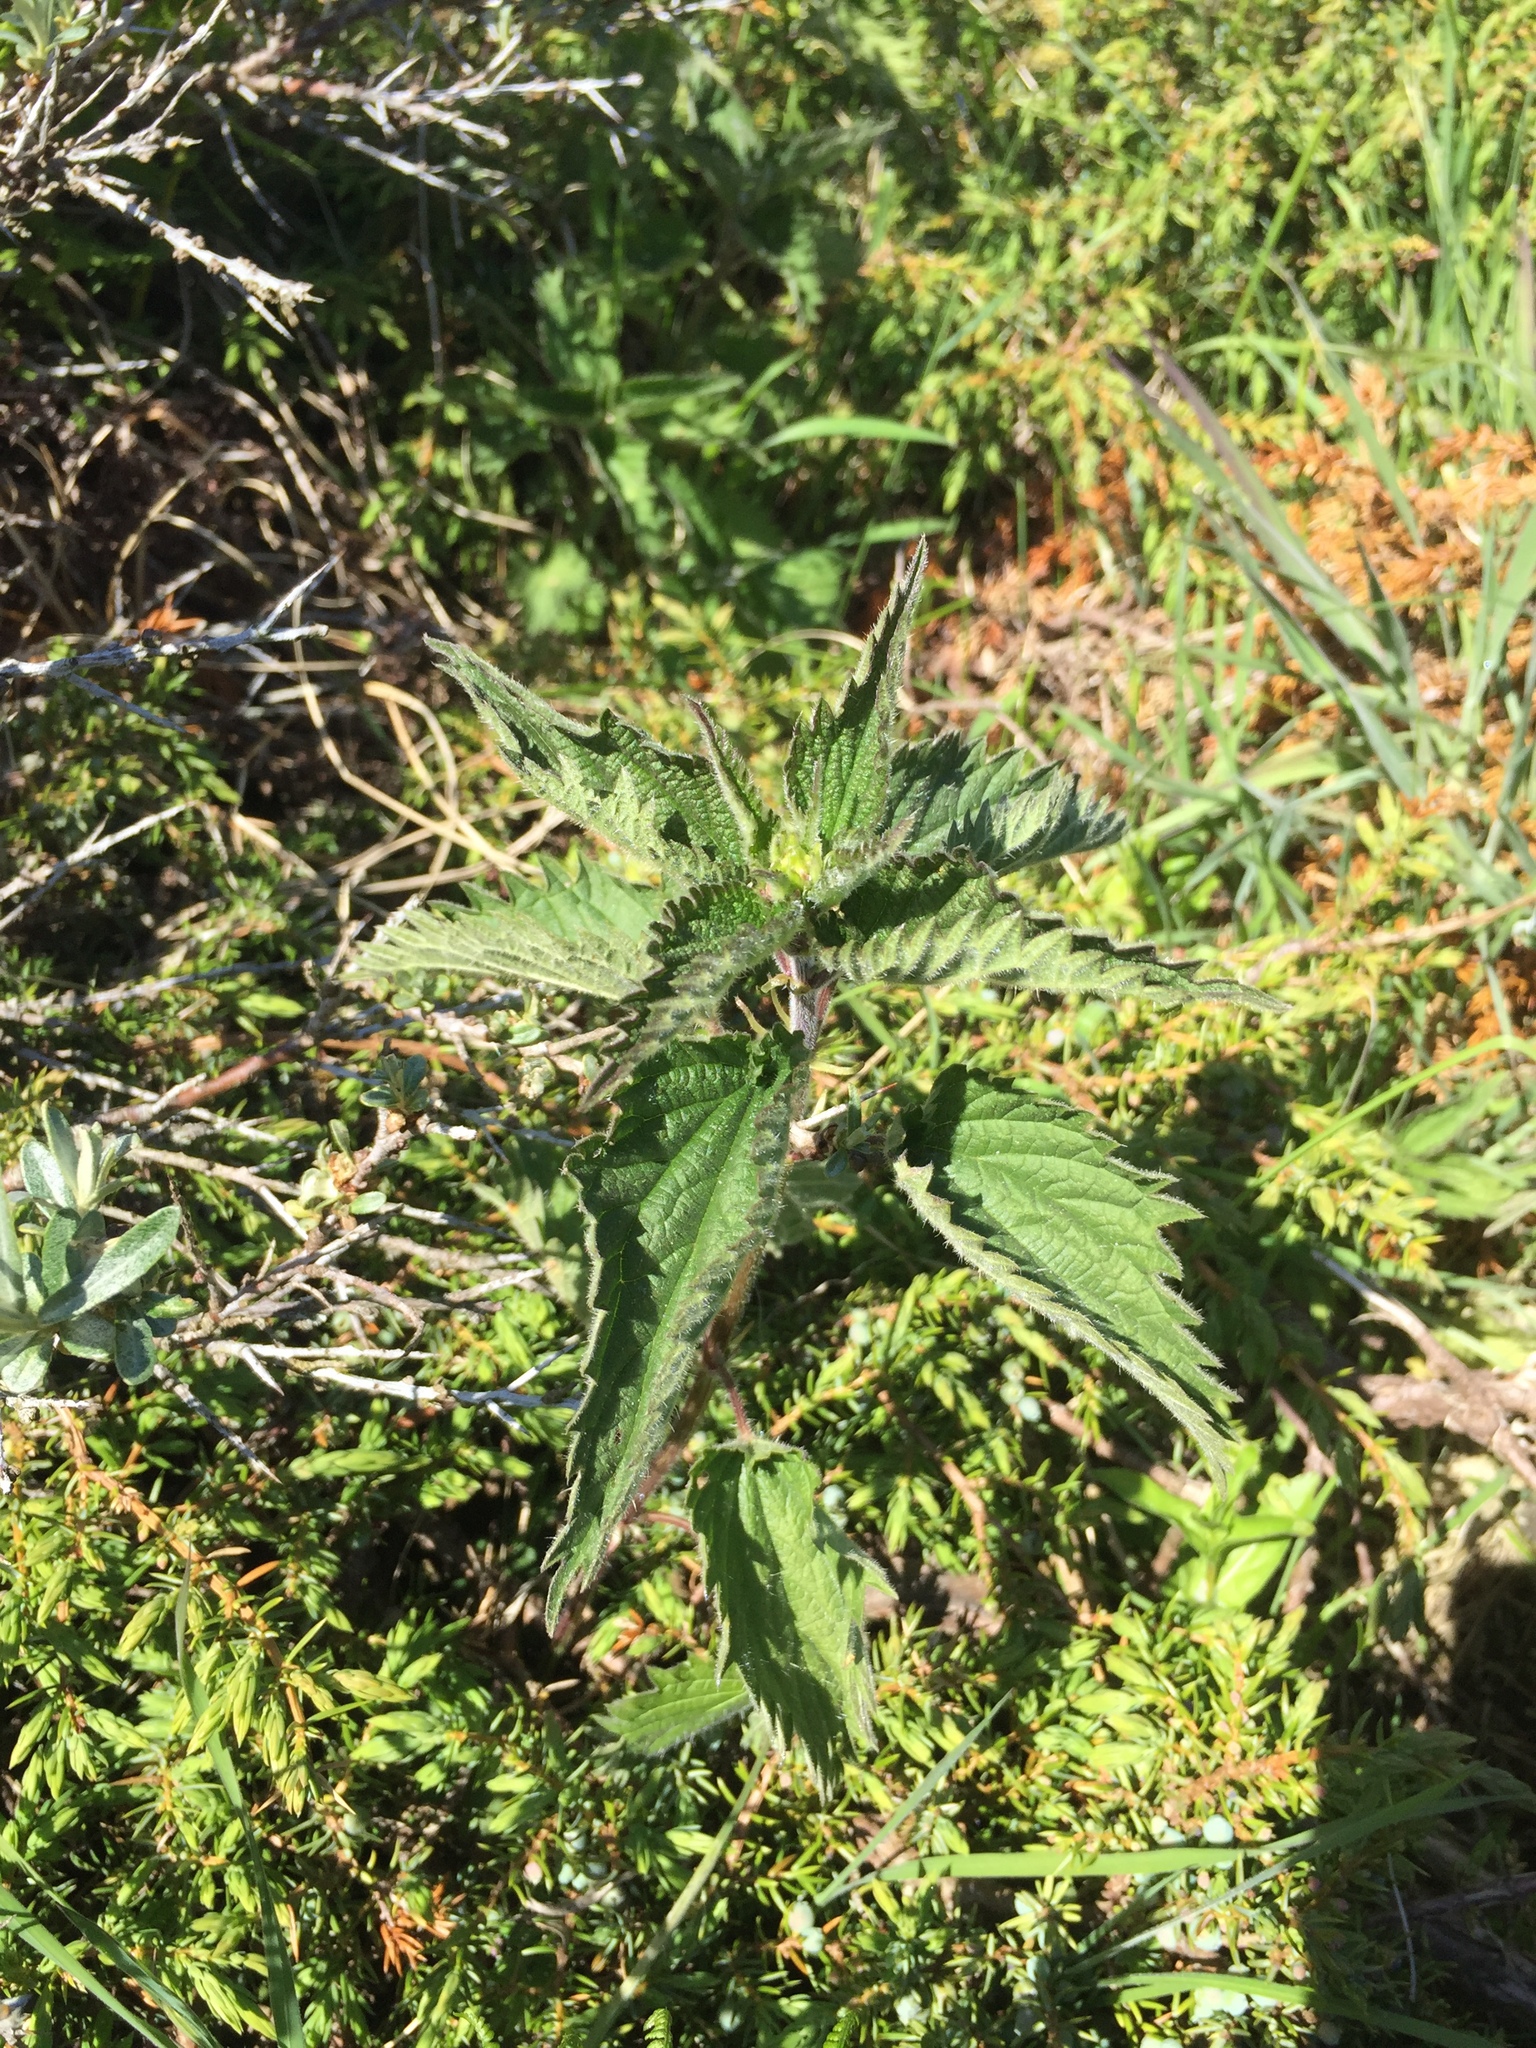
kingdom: Plantae
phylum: Tracheophyta
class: Magnoliopsida
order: Rosales
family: Urticaceae
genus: Urtica
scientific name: Urtica dioica
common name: Common nettle
